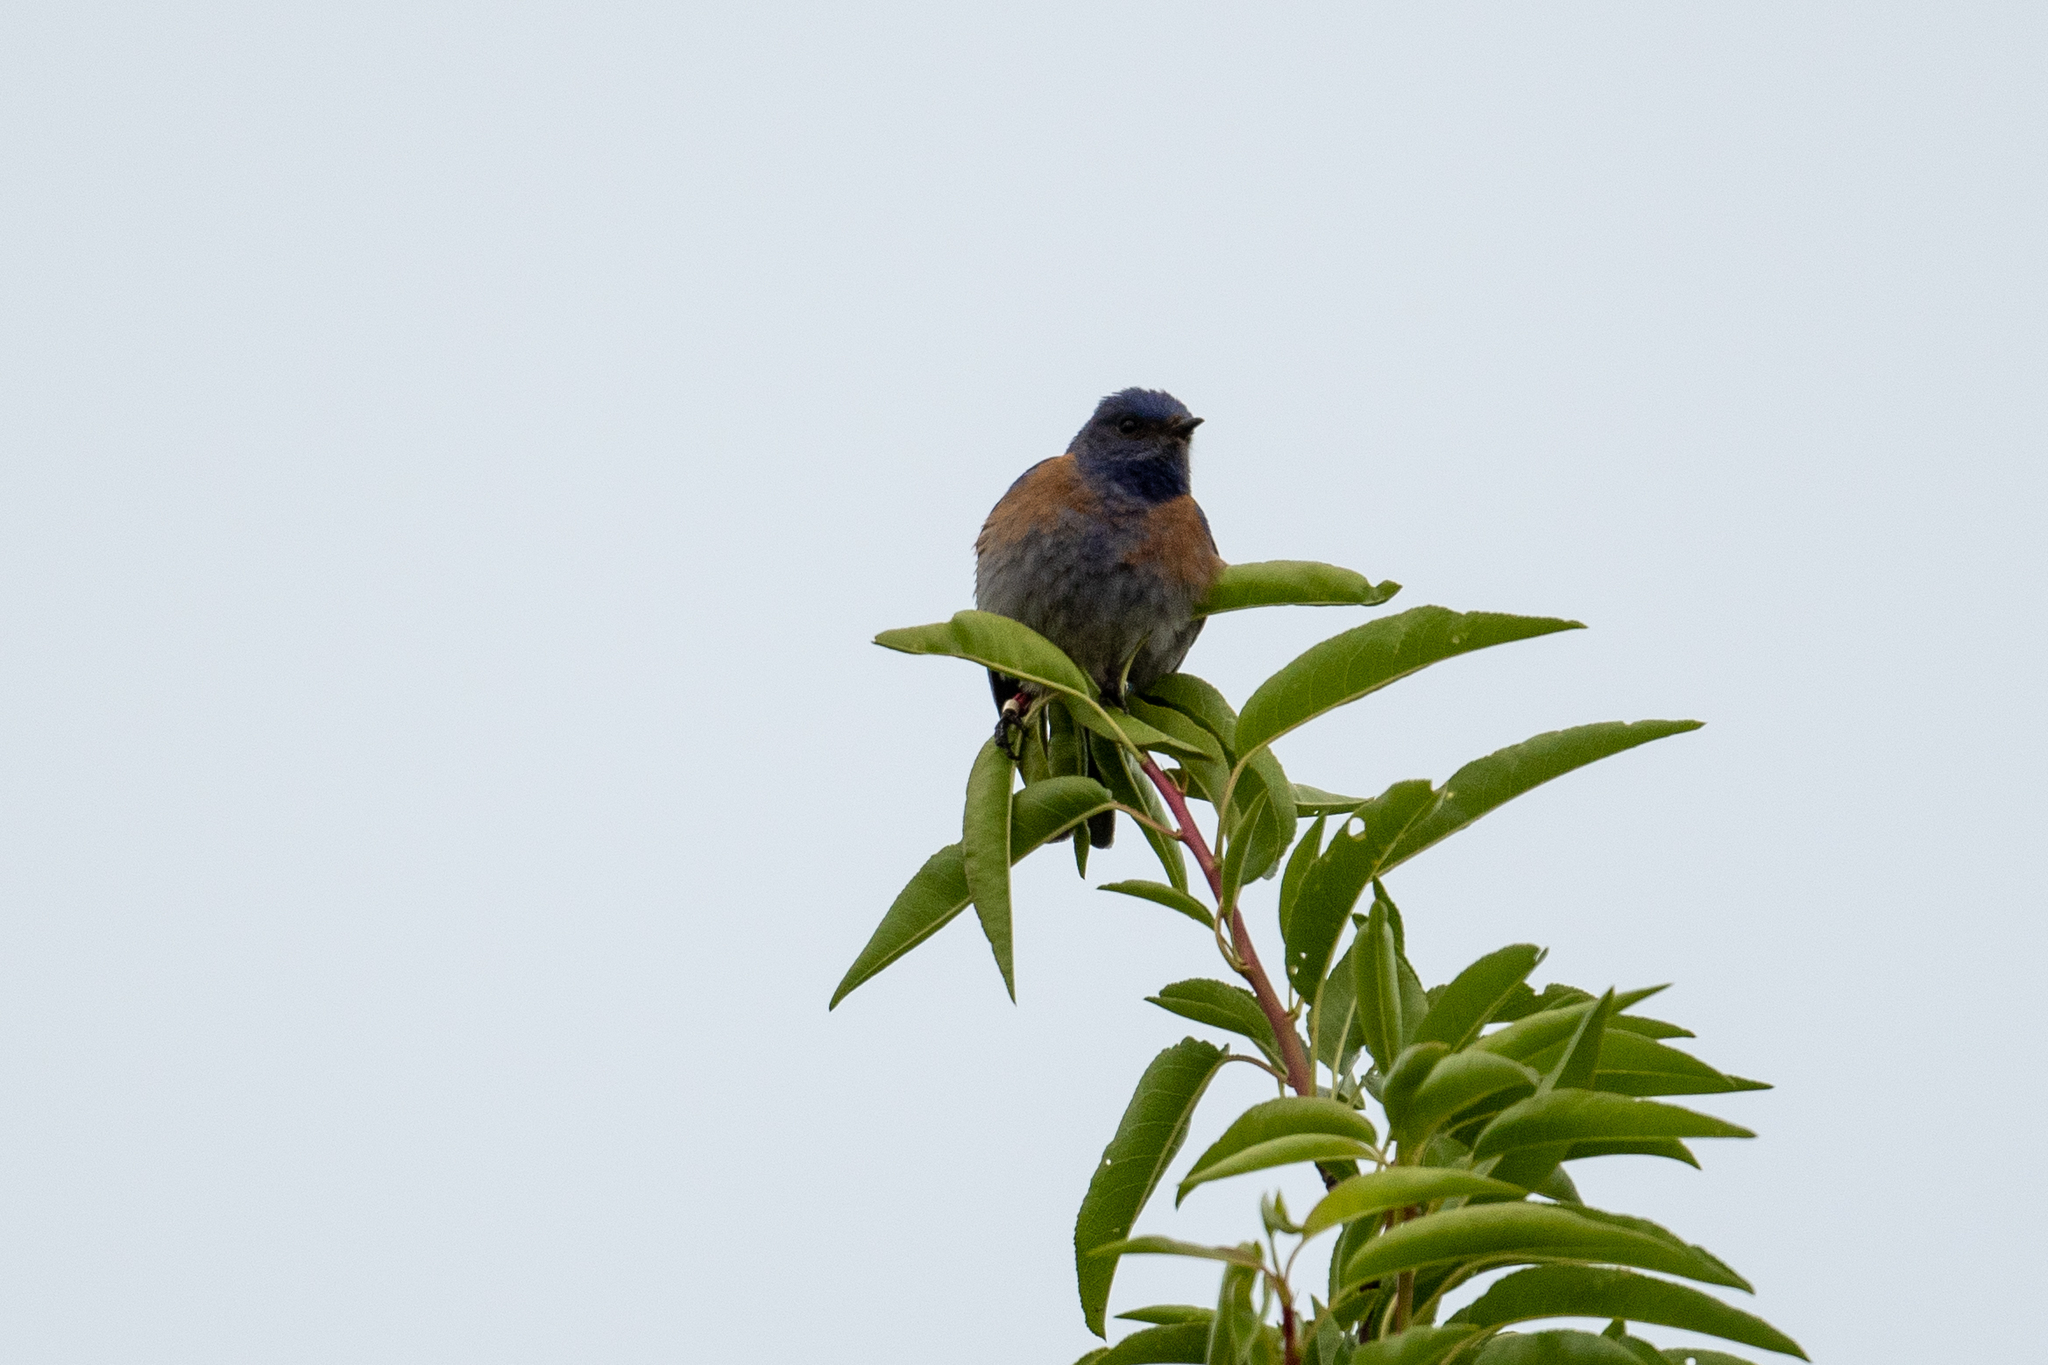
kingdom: Animalia
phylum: Chordata
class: Aves
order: Passeriformes
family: Turdidae
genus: Sialia
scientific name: Sialia mexicana
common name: Western bluebird
